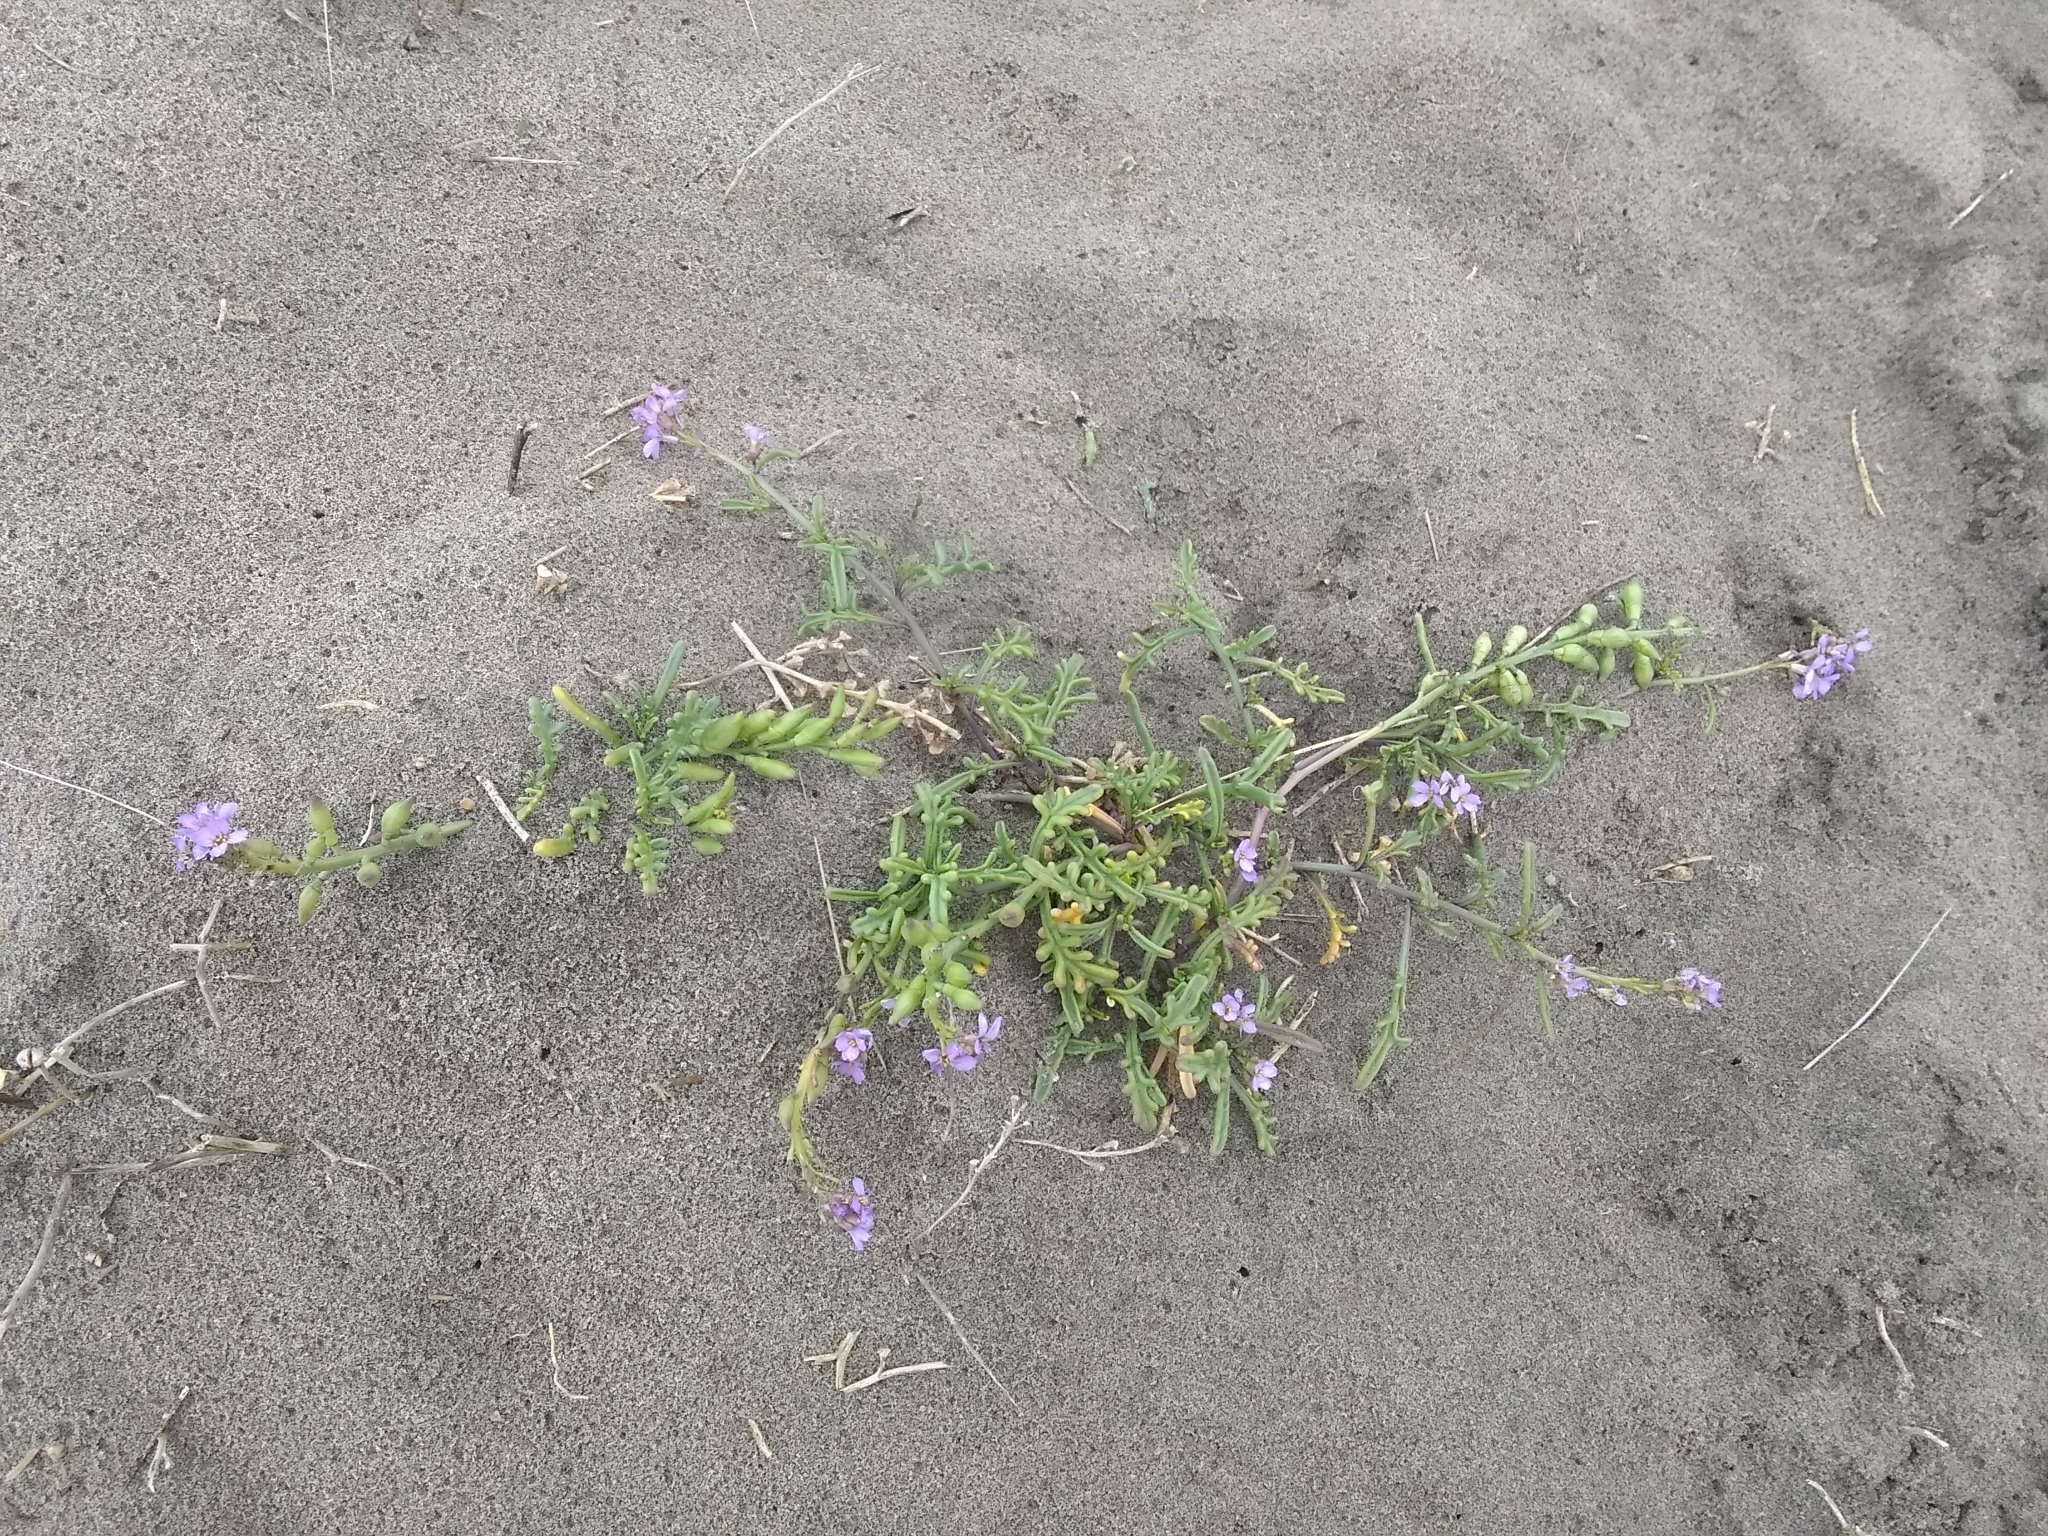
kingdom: Plantae
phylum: Tracheophyta
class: Magnoliopsida
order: Brassicales
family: Brassicaceae
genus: Cakile
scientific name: Cakile maritima
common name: Sea rocket
